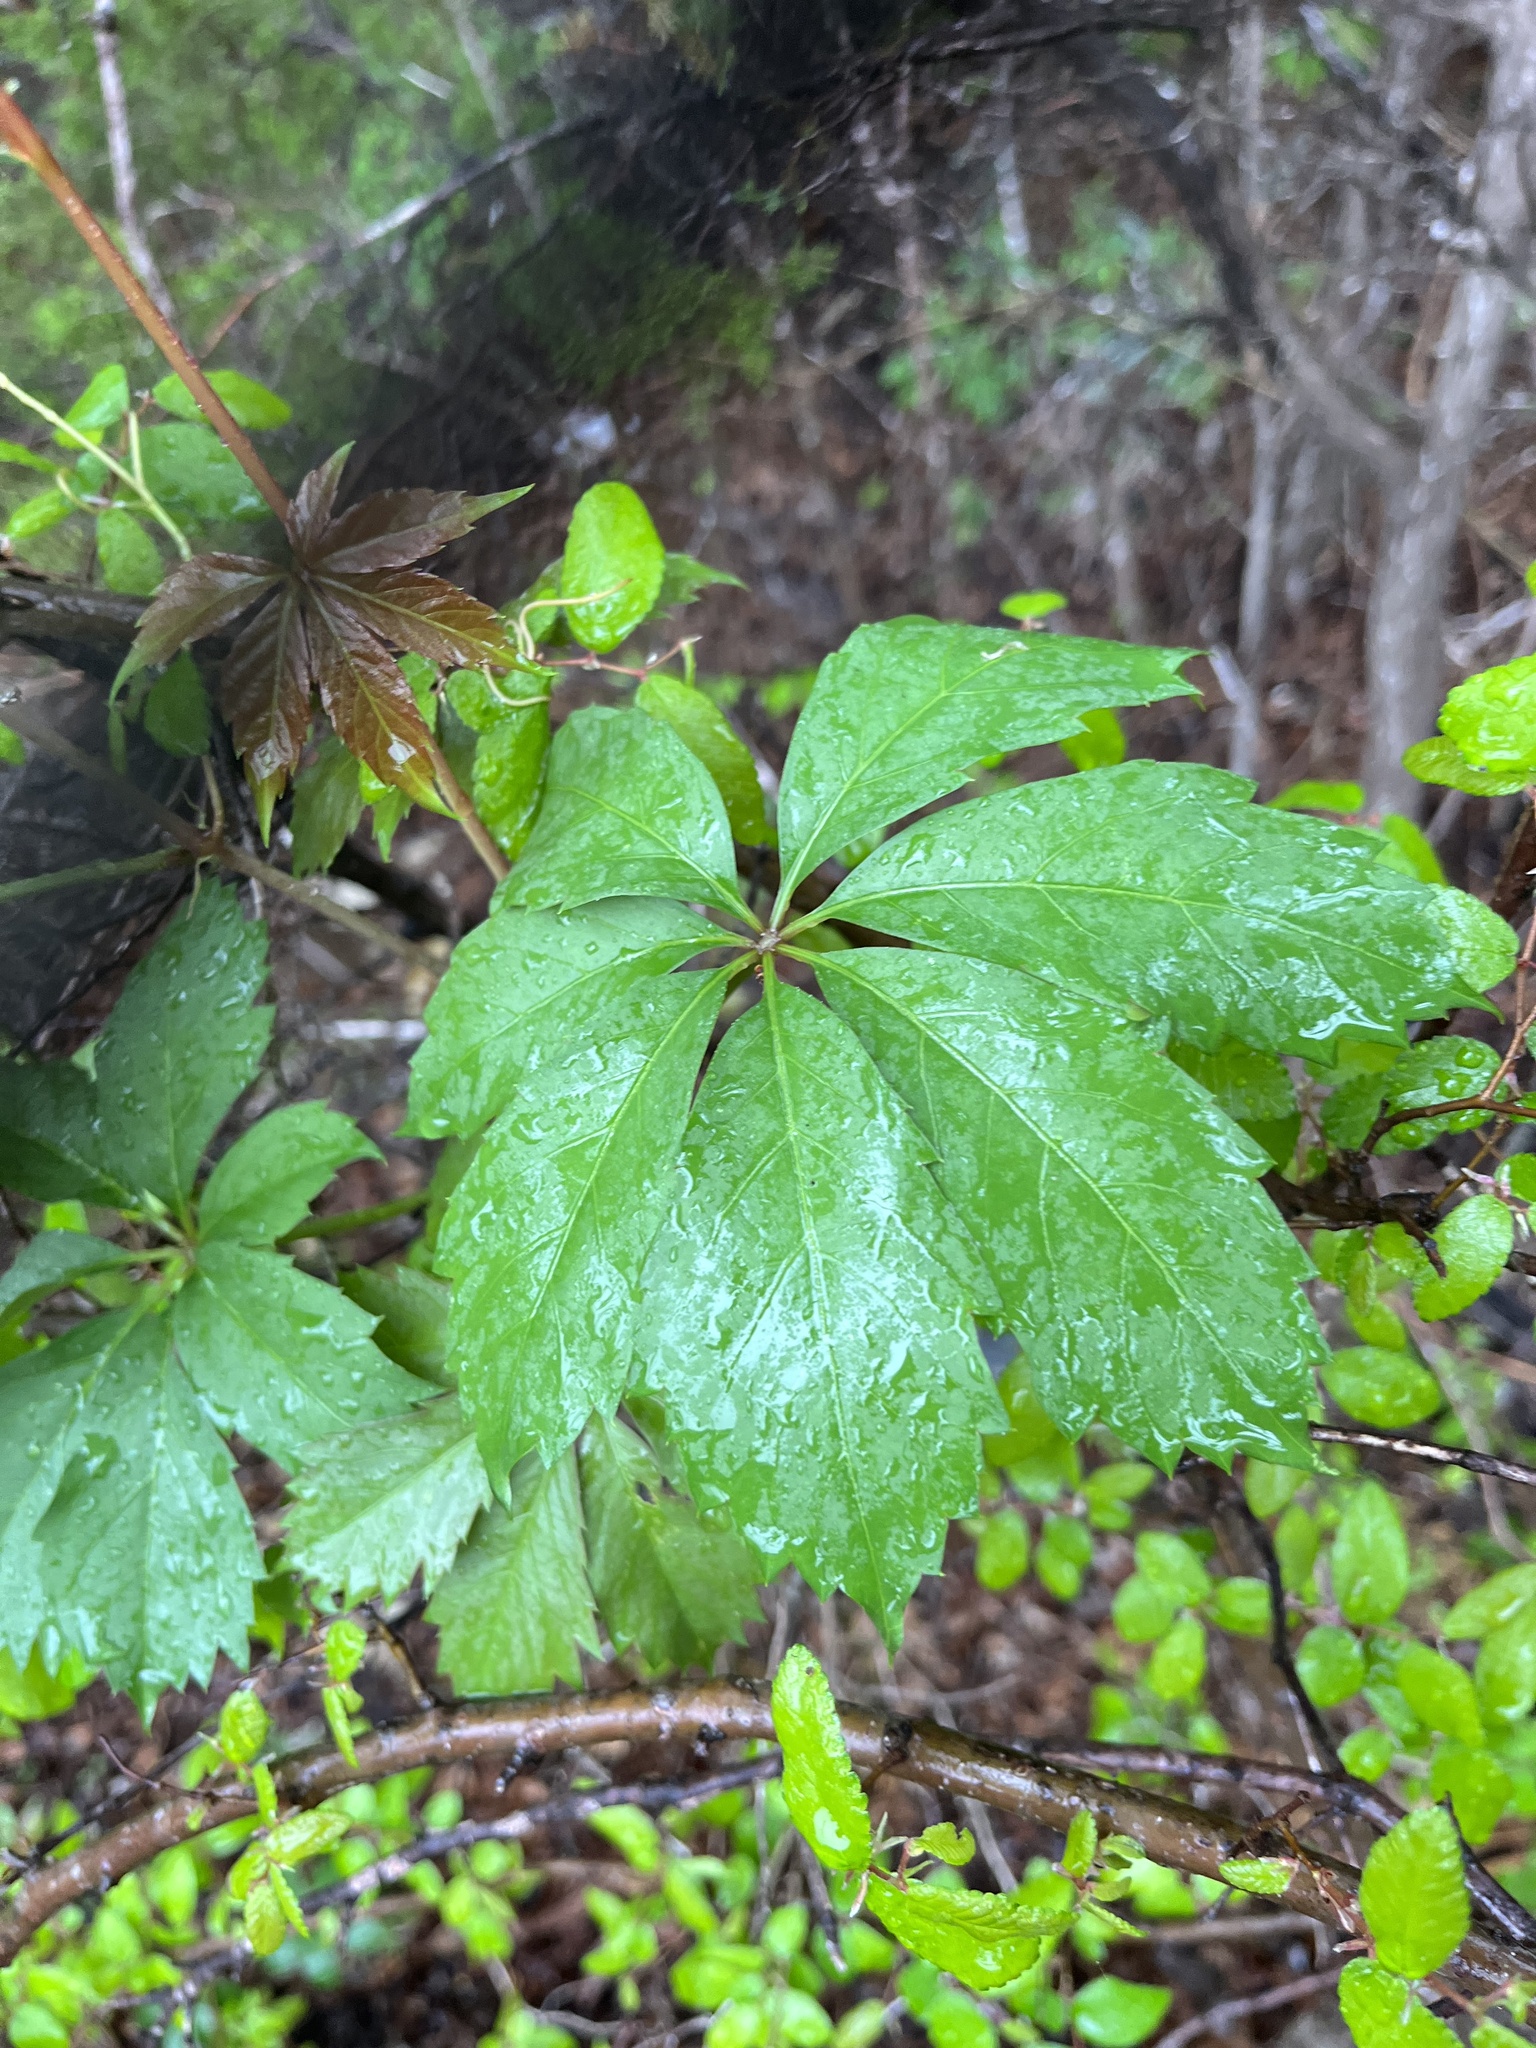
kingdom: Plantae
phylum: Tracheophyta
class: Magnoliopsida
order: Vitales
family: Vitaceae
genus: Parthenocissus
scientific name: Parthenocissus heptaphylla
